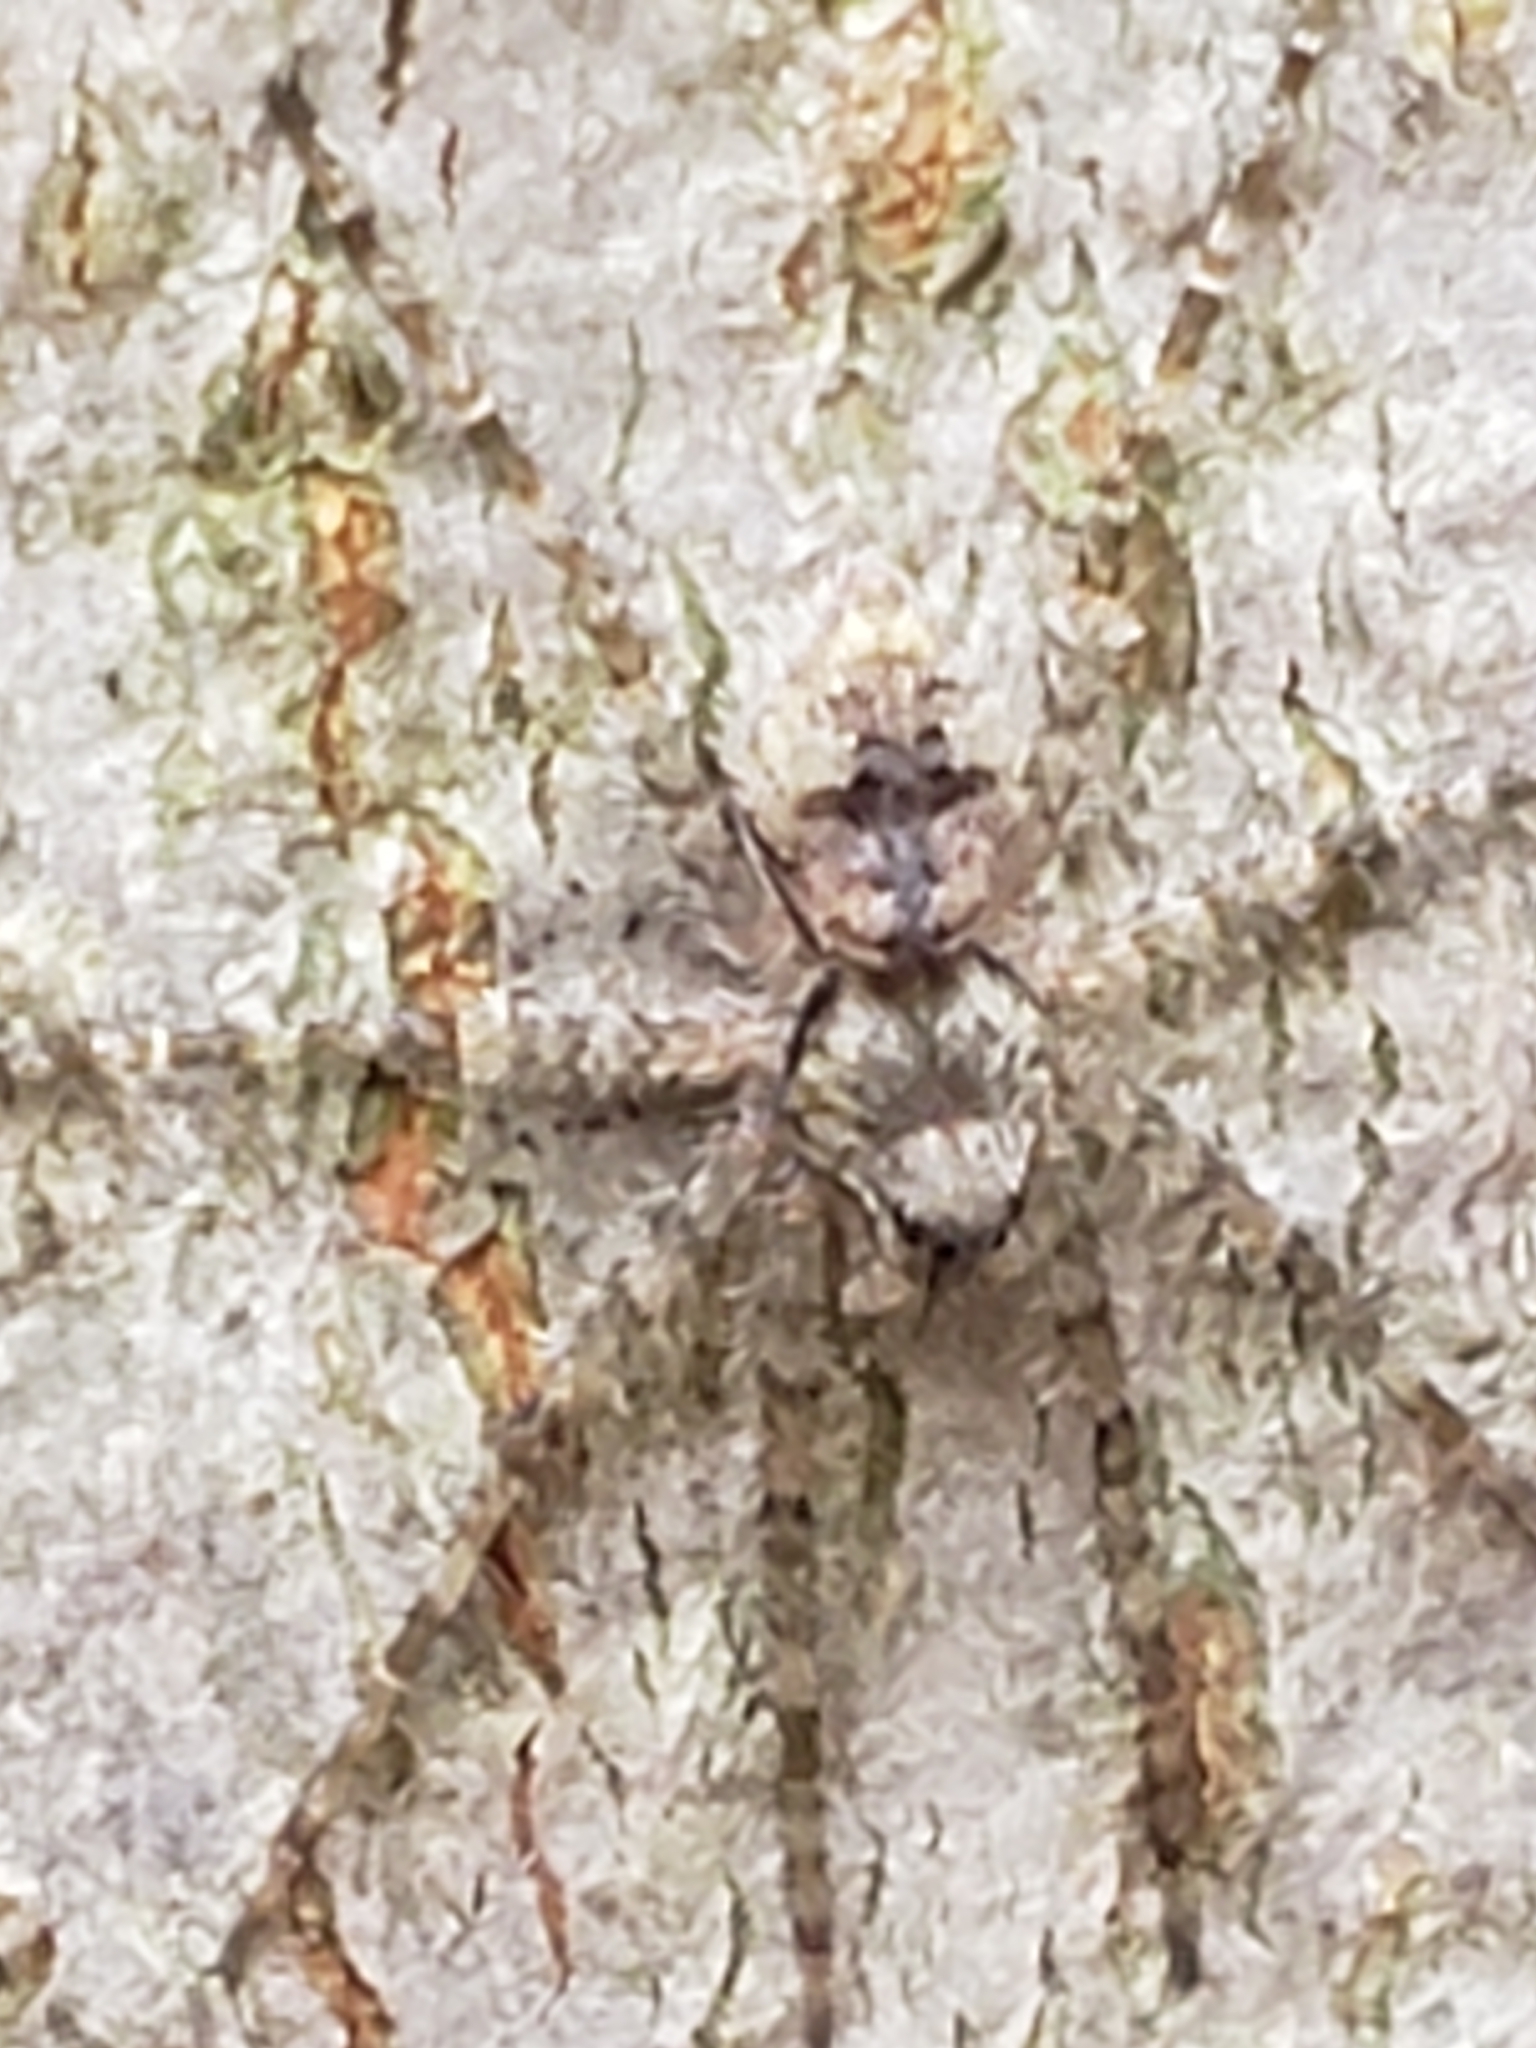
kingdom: Animalia
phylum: Arthropoda
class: Arachnida
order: Araneae
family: Pisauridae
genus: Dolomedes
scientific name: Dolomedes albineus
